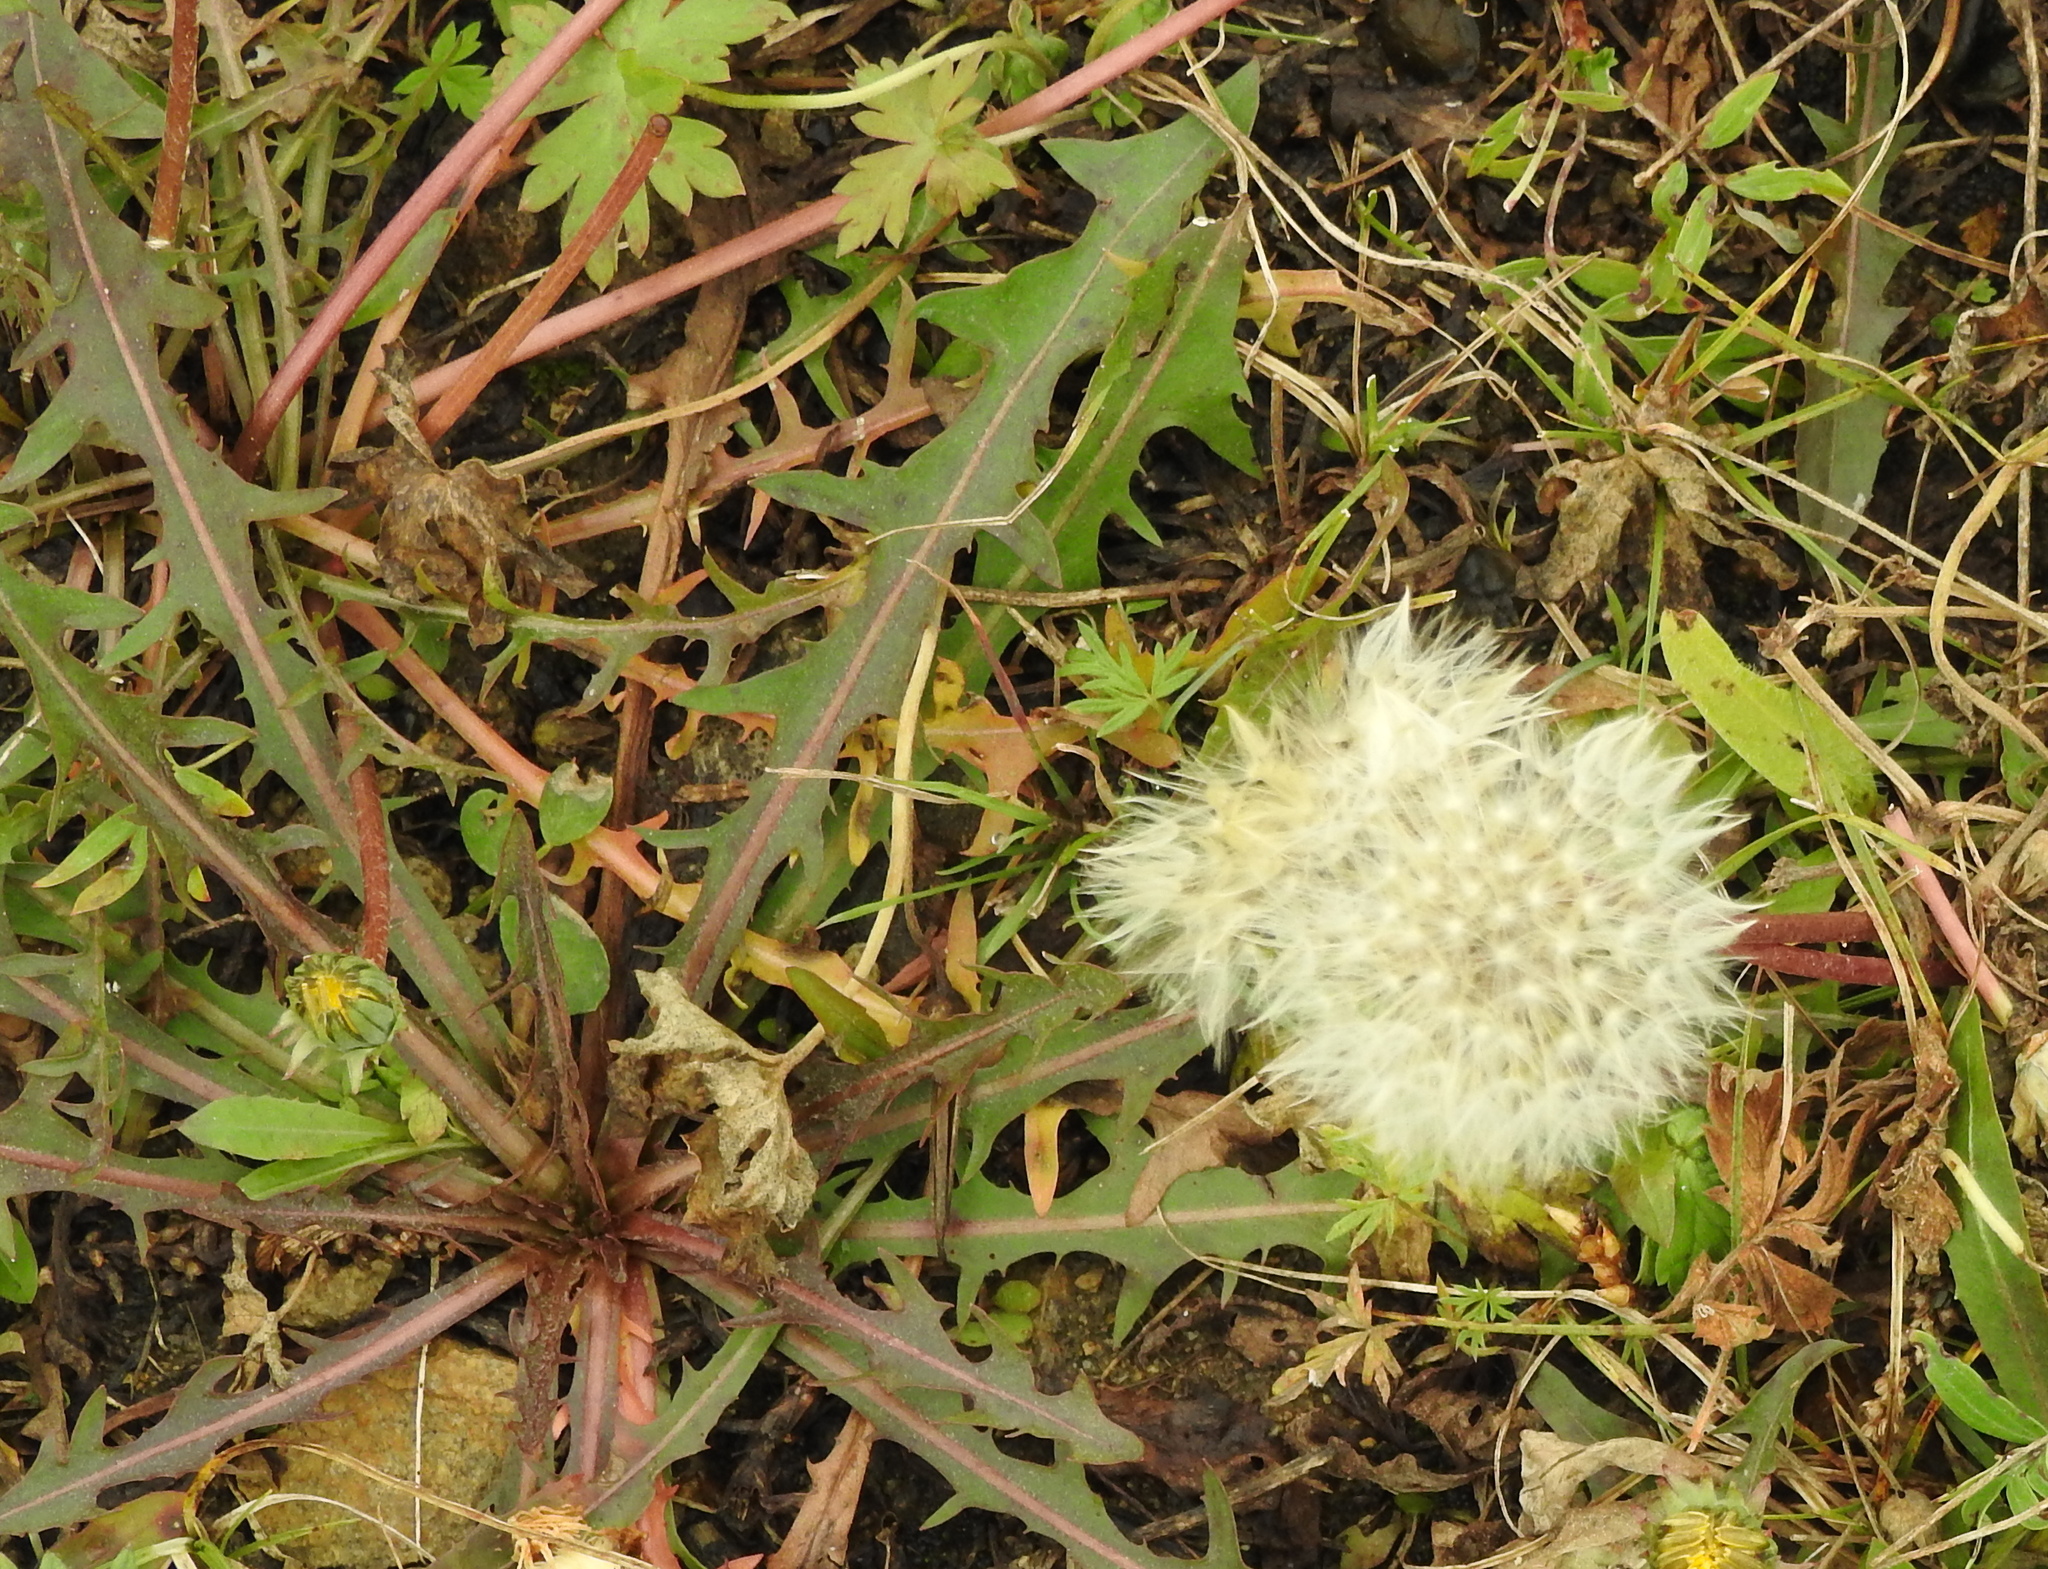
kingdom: Plantae
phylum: Tracheophyta
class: Magnoliopsida
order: Asterales
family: Asteraceae
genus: Taraxacum
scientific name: Taraxacum officinale
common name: Common dandelion
